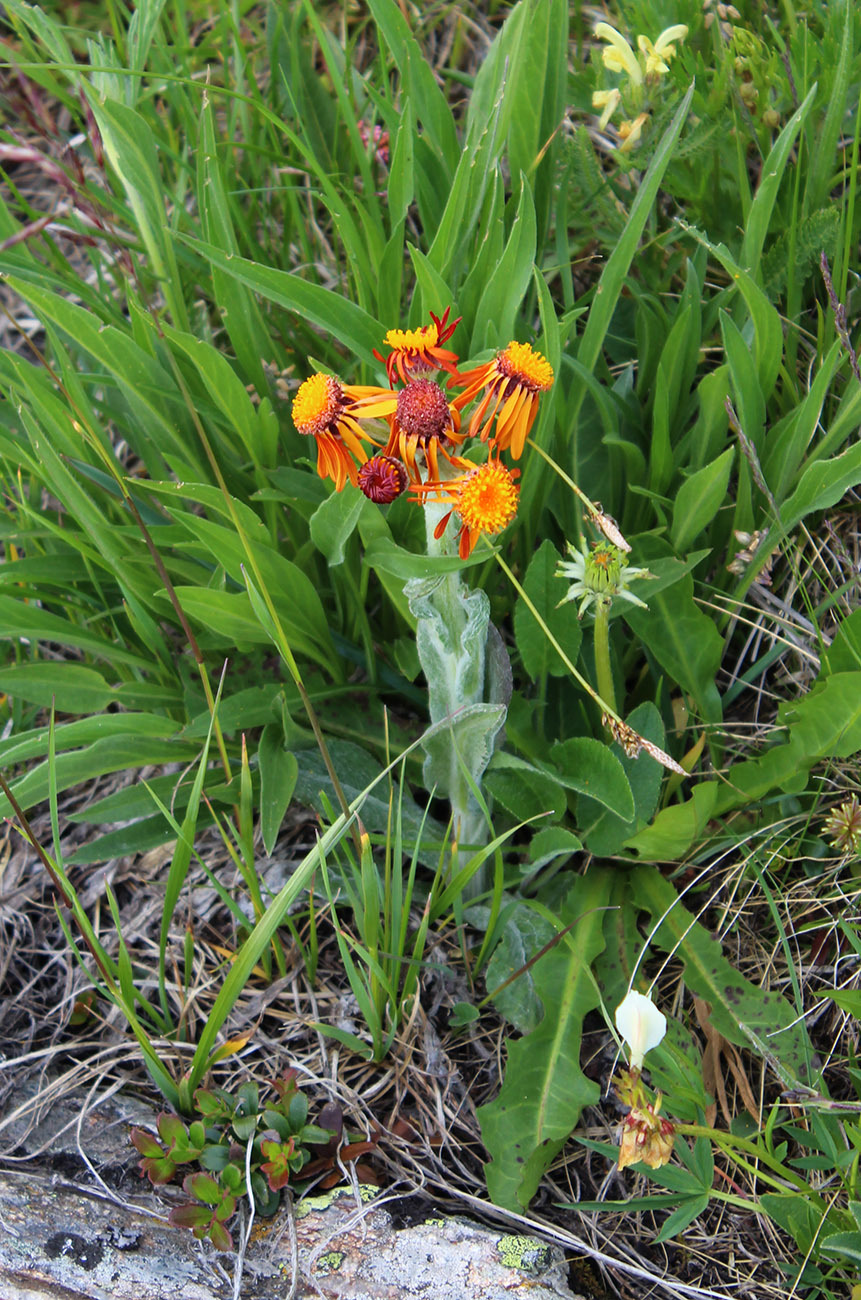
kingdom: Plantae
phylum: Tracheophyta
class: Magnoliopsida
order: Asterales
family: Asteraceae
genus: Tephroseris
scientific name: Tephroseris integrifolia
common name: Field fleawort
